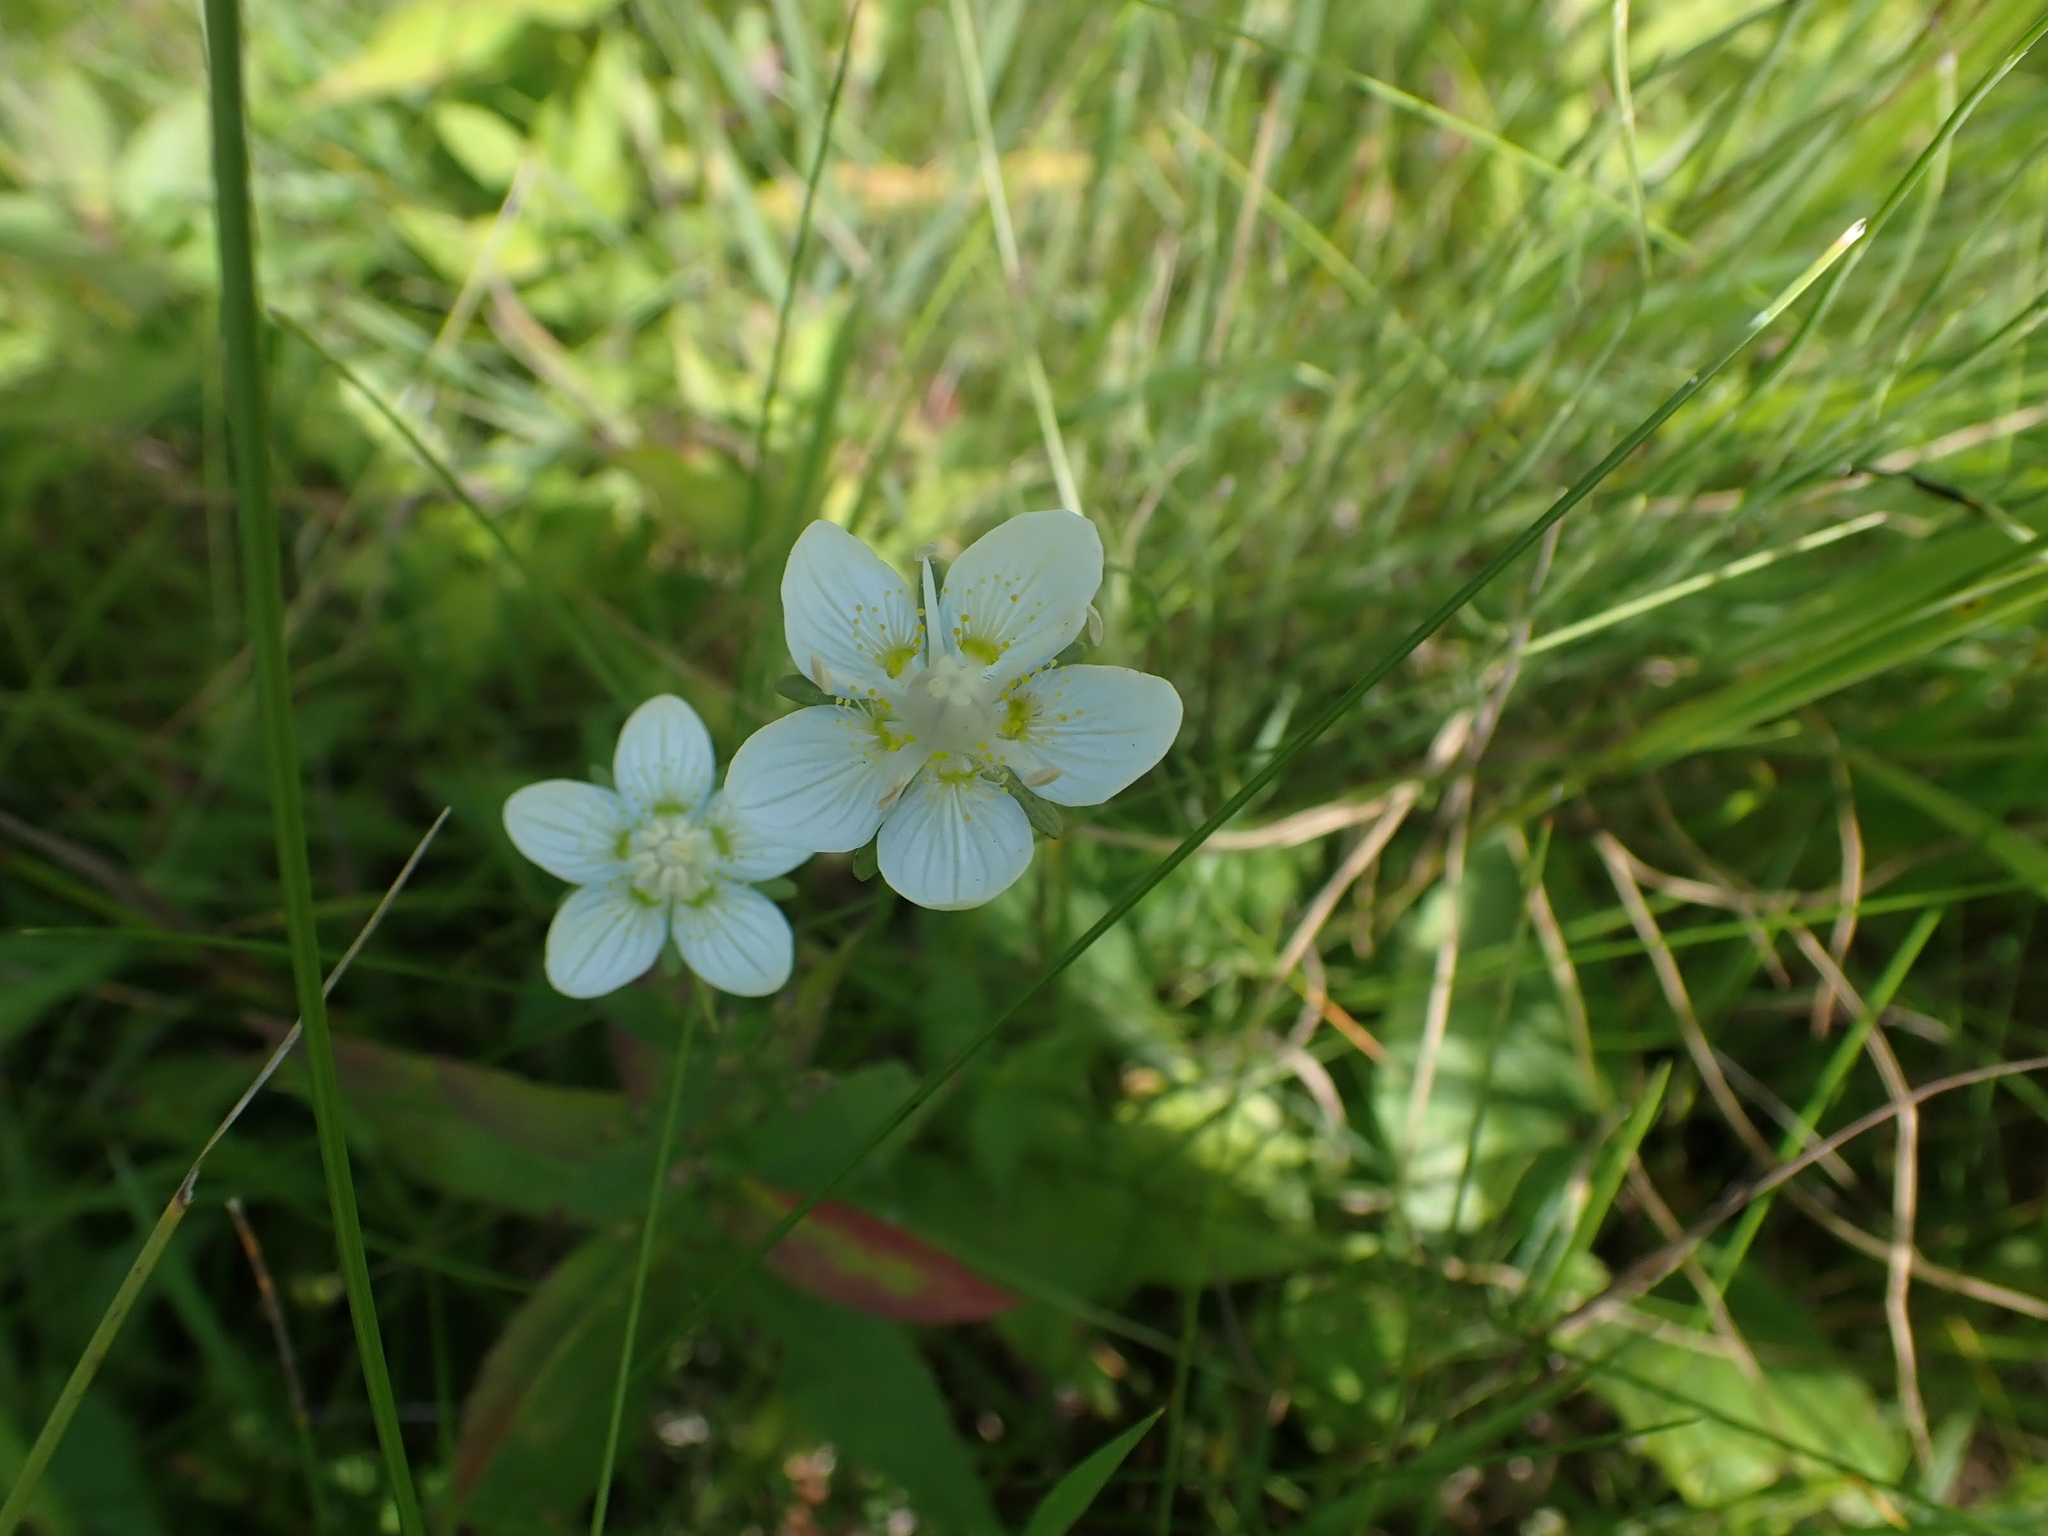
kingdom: Plantae
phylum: Tracheophyta
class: Magnoliopsida
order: Celastrales
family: Parnassiaceae
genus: Parnassia
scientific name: Parnassia palustris
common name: Grass-of-parnassus
